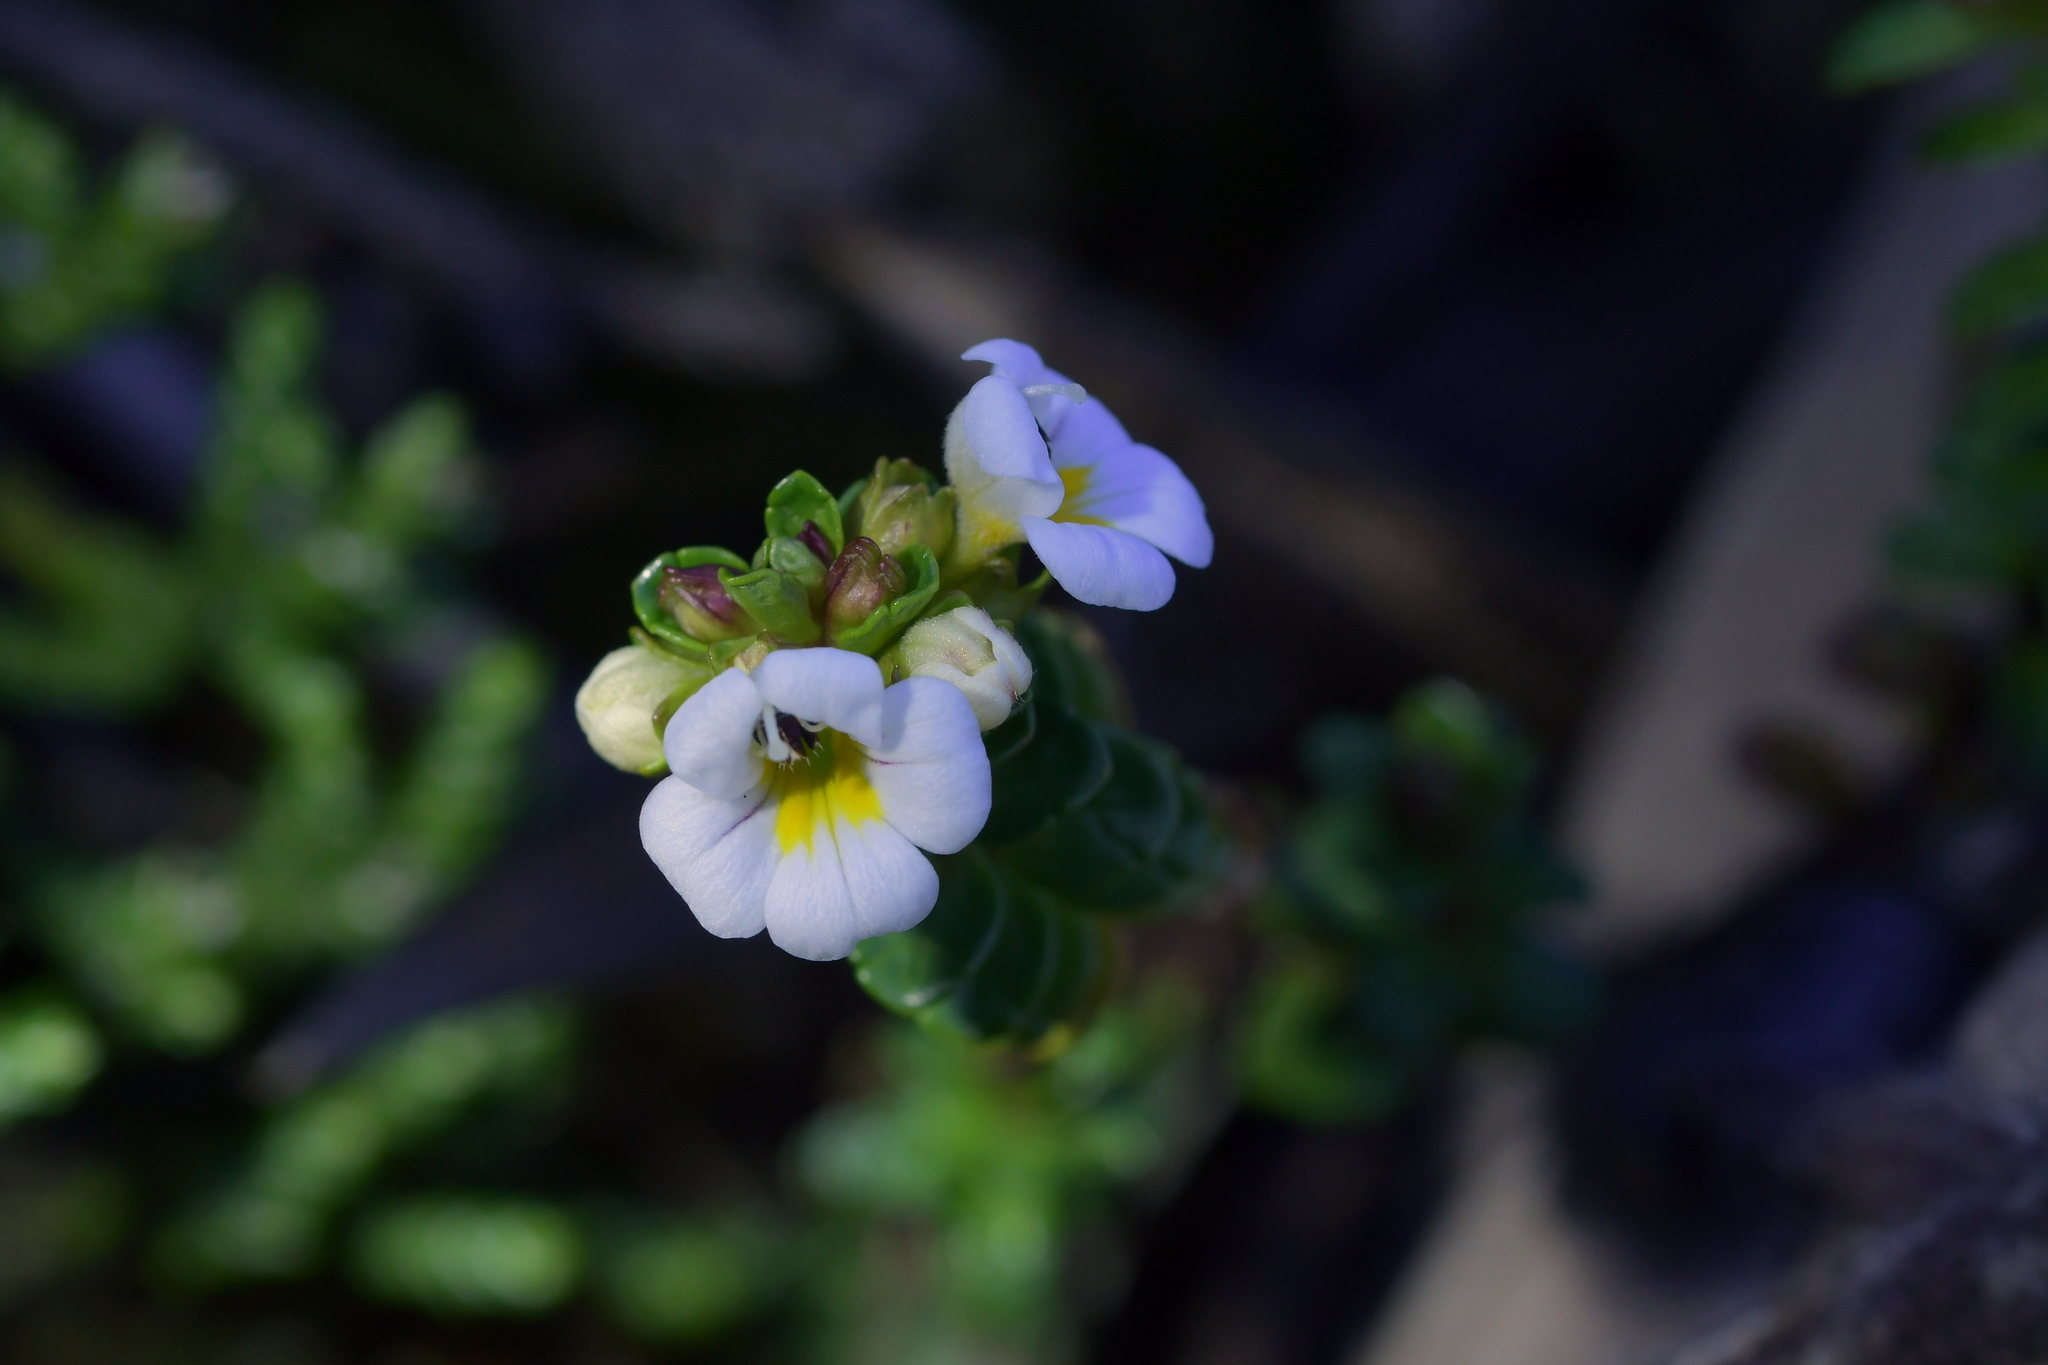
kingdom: Plantae
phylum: Tracheophyta
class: Magnoliopsida
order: Lamiales
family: Orobanchaceae
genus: Euphrasia
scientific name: Euphrasia monroi
